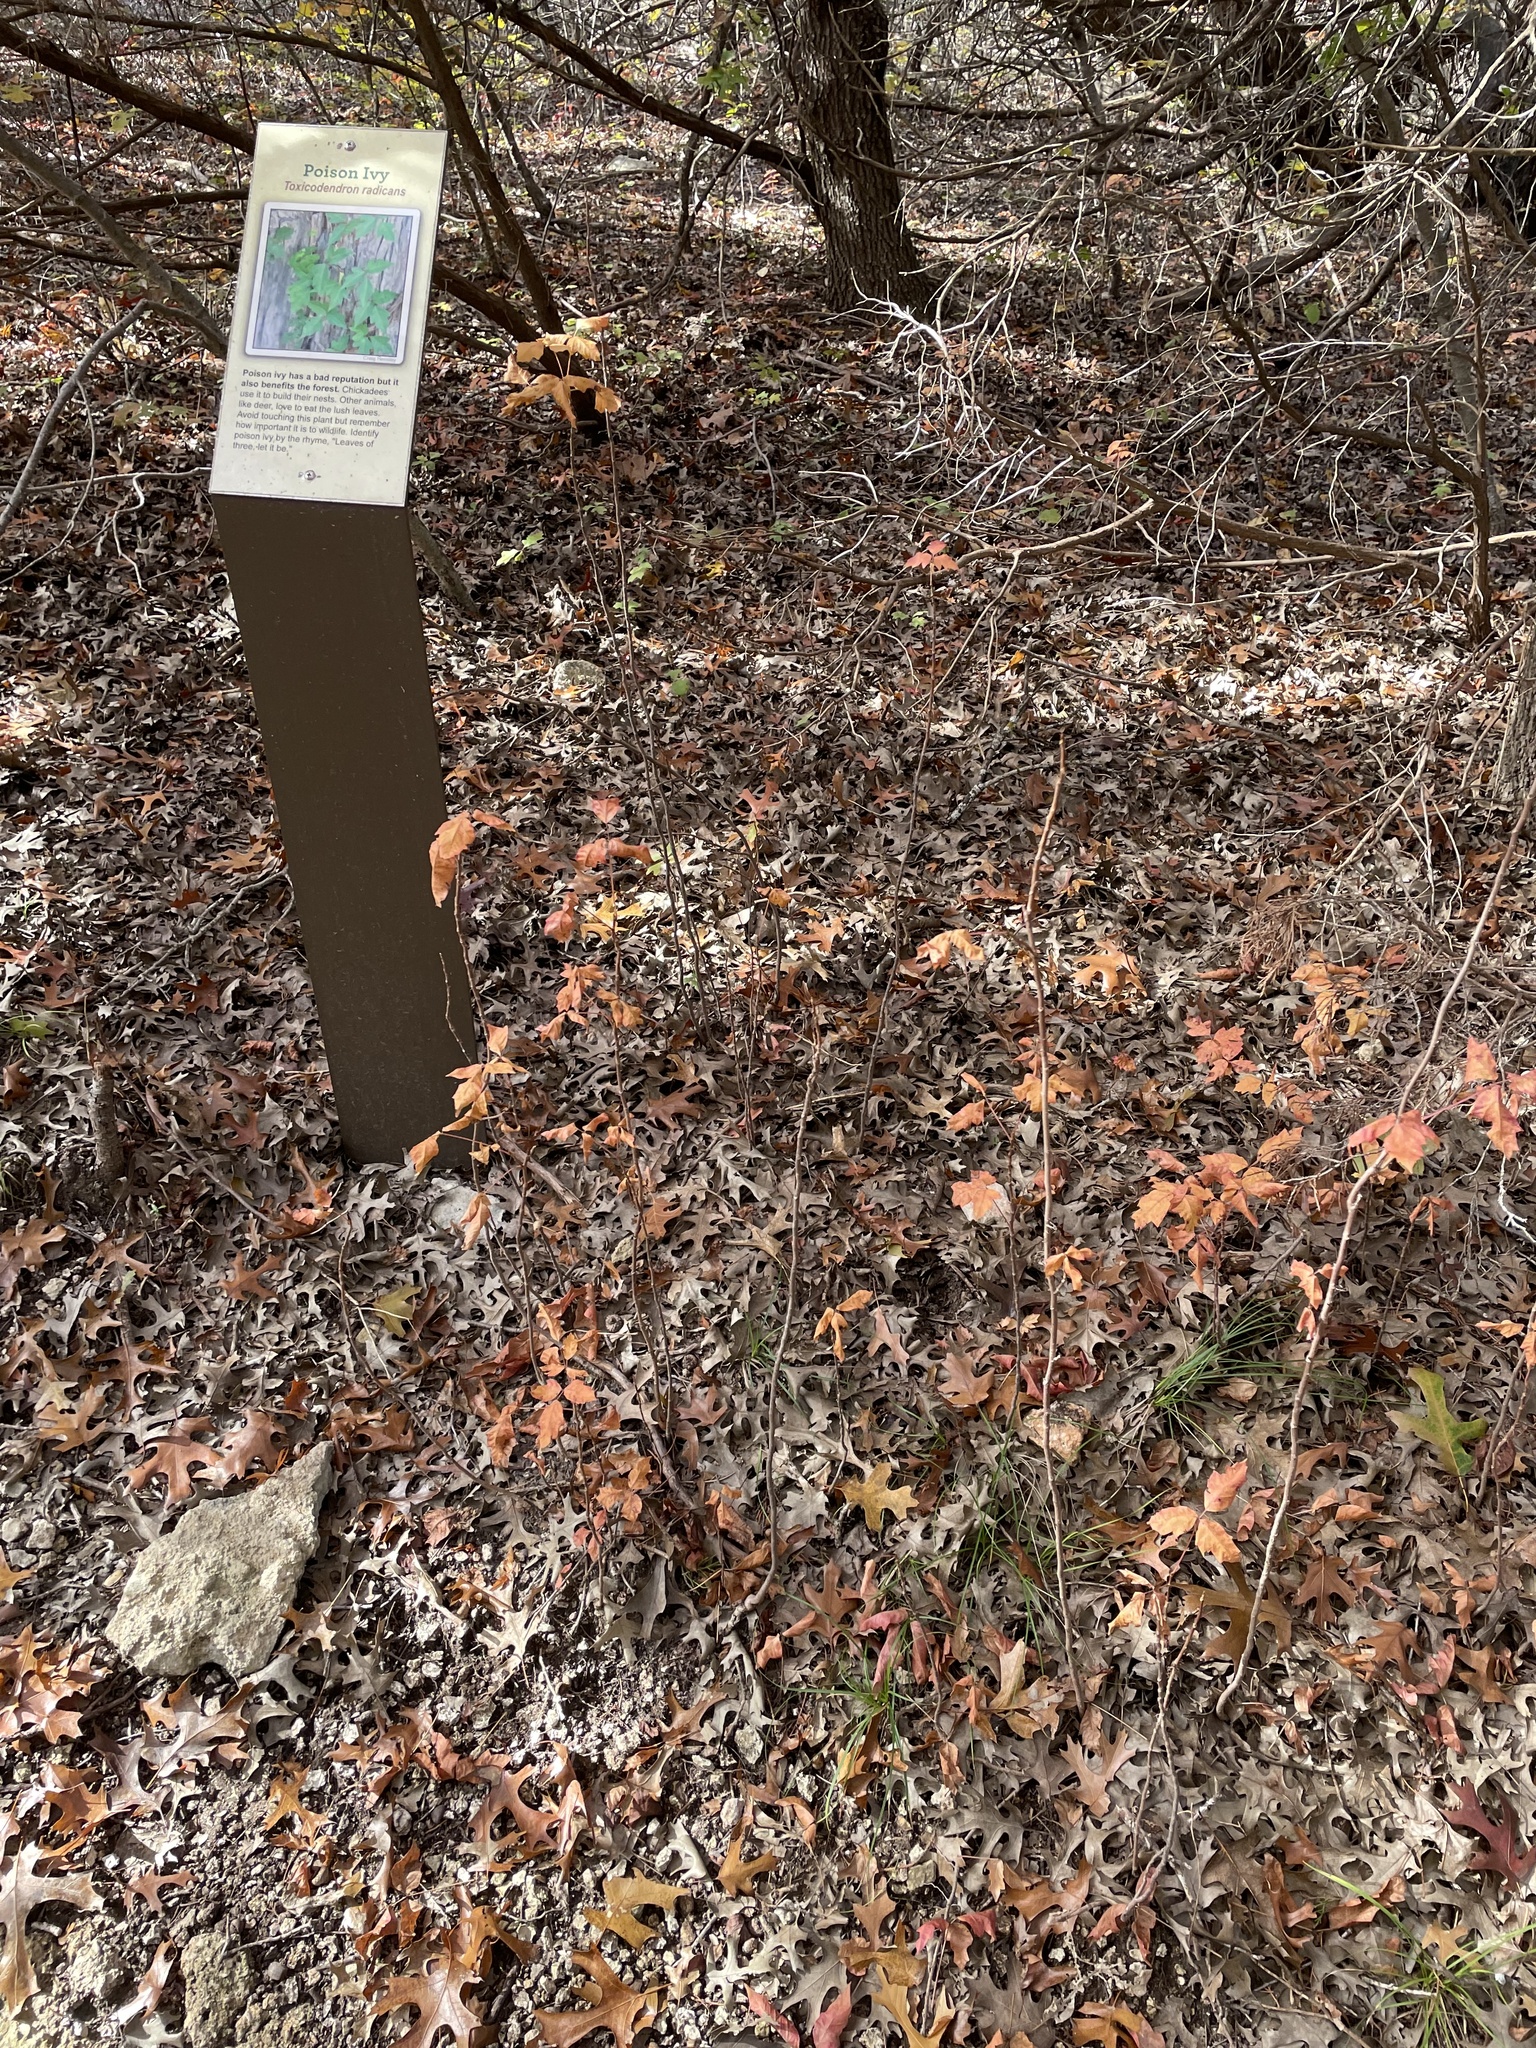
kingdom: Plantae
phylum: Tracheophyta
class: Magnoliopsida
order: Sapindales
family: Anacardiaceae
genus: Toxicodendron
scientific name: Toxicodendron radicans
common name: Poison ivy
